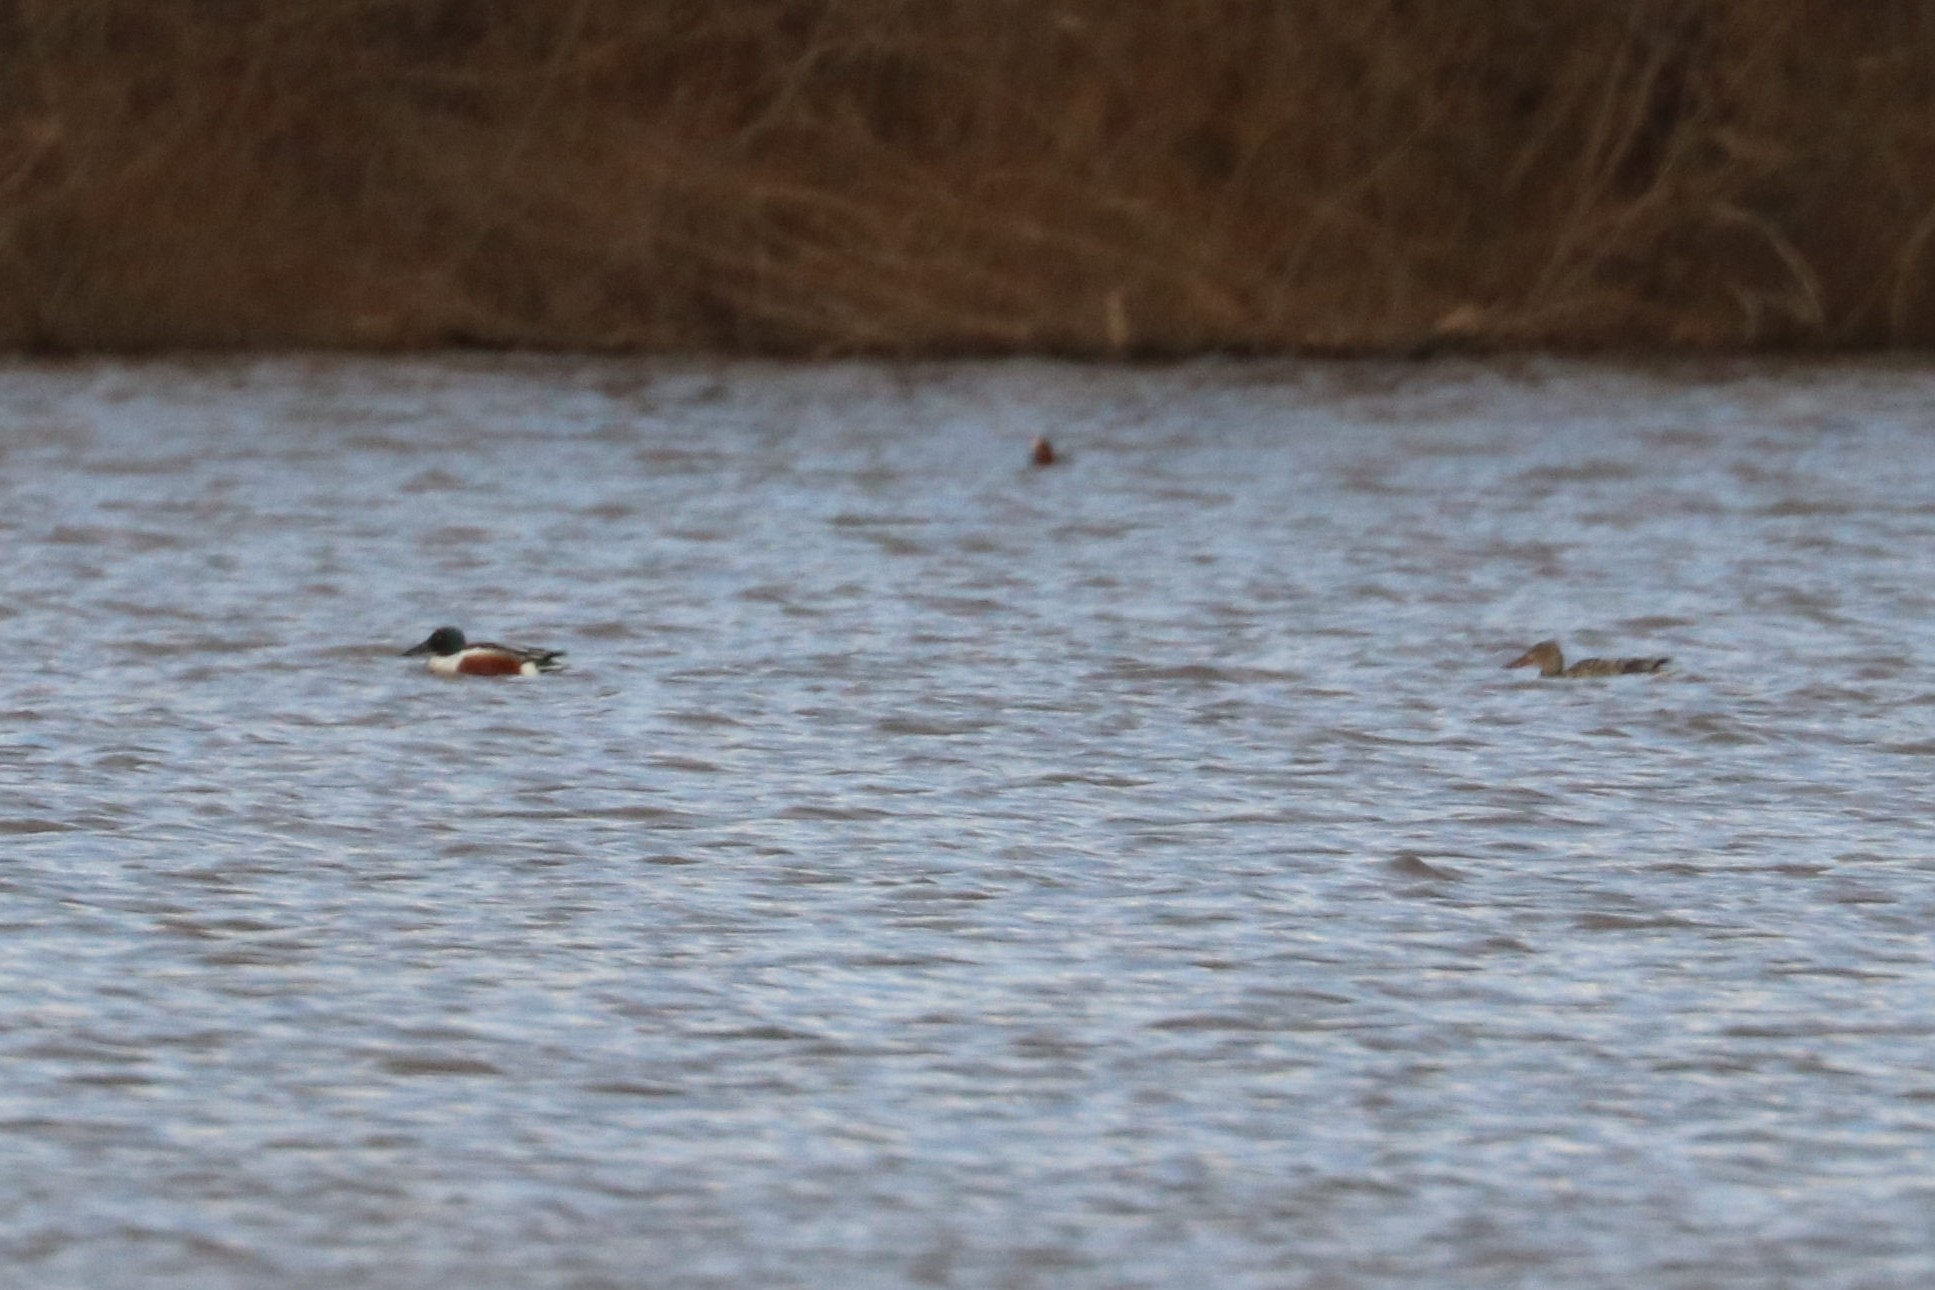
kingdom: Animalia
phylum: Chordata
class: Aves
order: Anseriformes
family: Anatidae
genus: Spatula
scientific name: Spatula clypeata
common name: Northern shoveler
